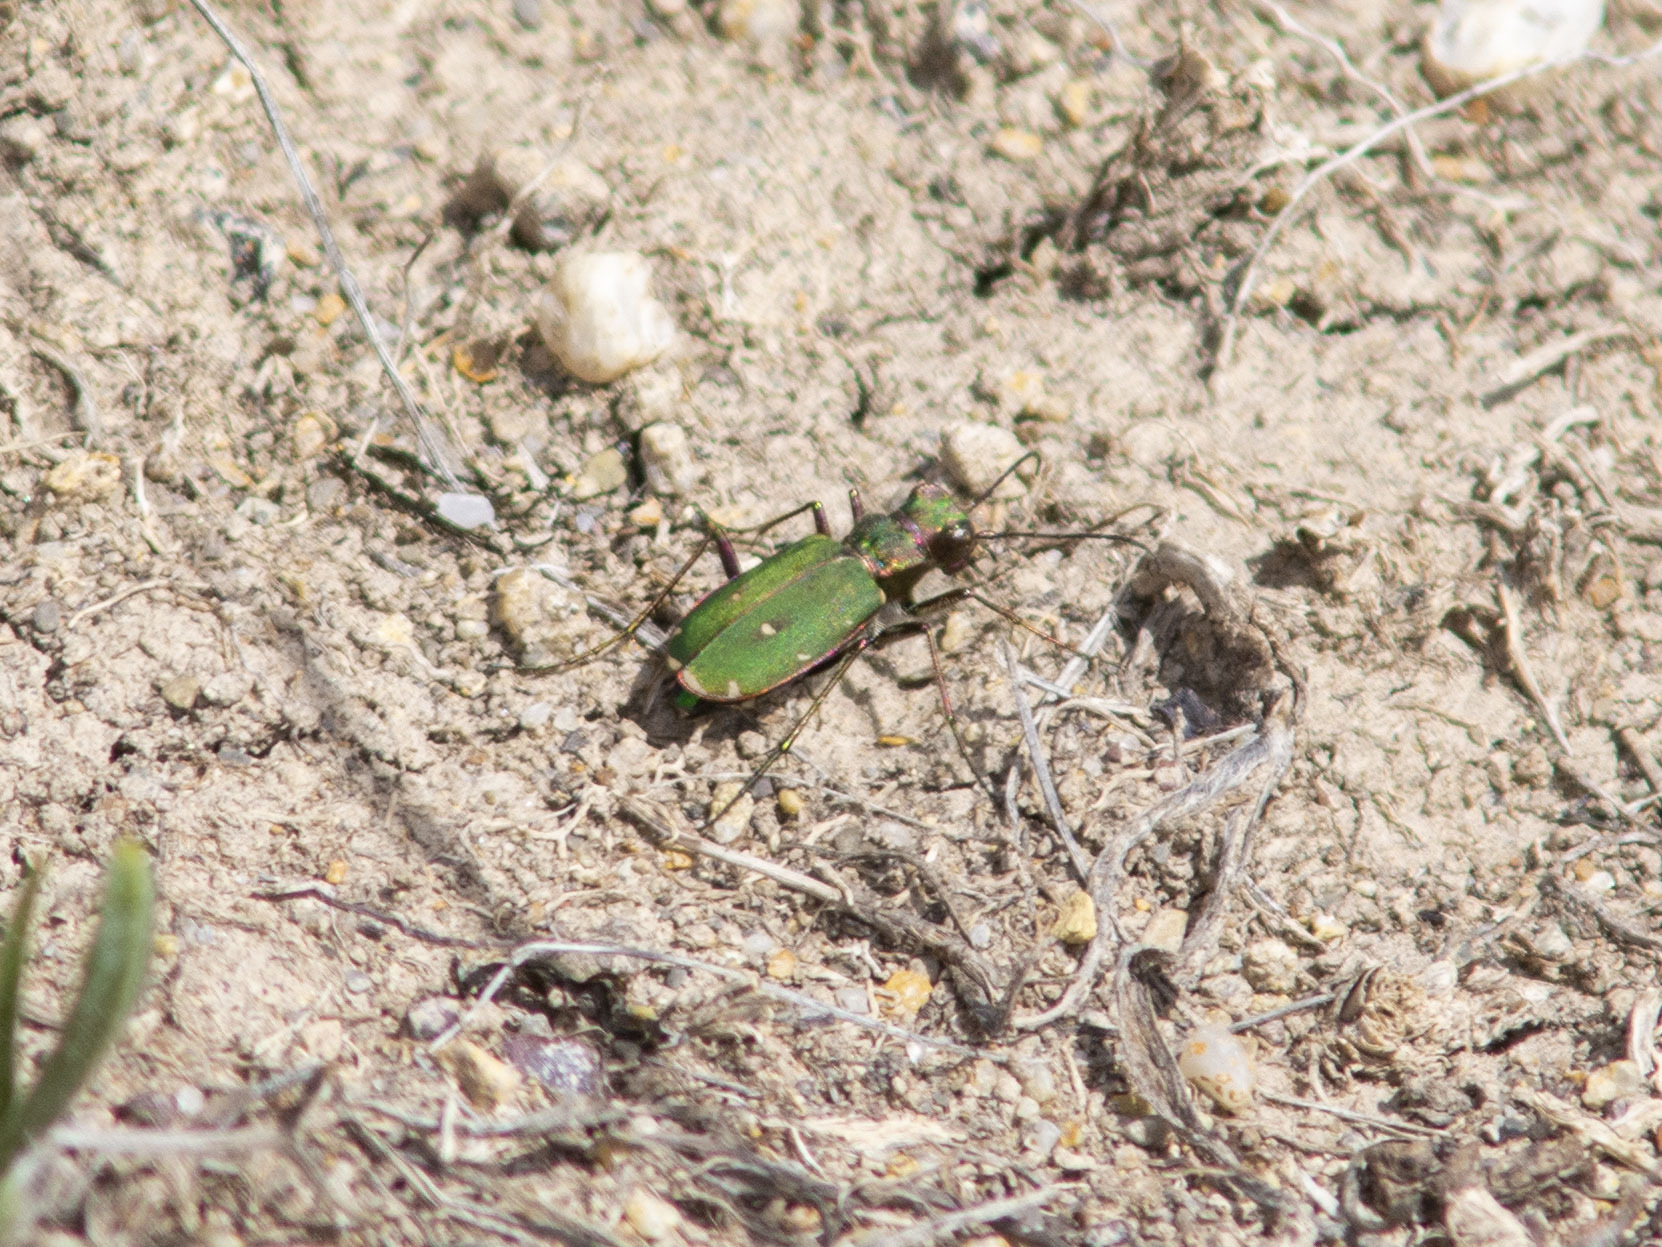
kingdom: Animalia
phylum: Arthropoda
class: Insecta
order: Coleoptera
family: Carabidae
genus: Cicindela
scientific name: Cicindela campestris
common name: Common tiger beetle
